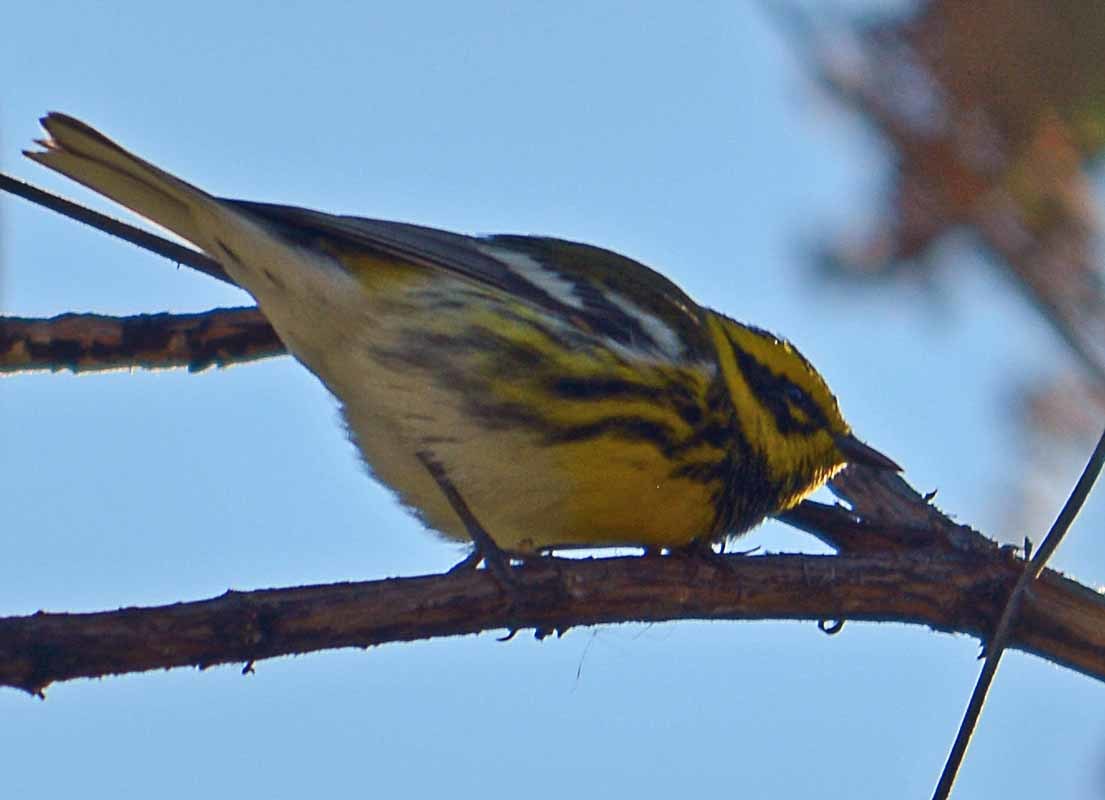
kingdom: Animalia
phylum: Chordata
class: Aves
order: Passeriformes
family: Parulidae
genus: Setophaga
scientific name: Setophaga townsendi
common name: Townsend's warbler
